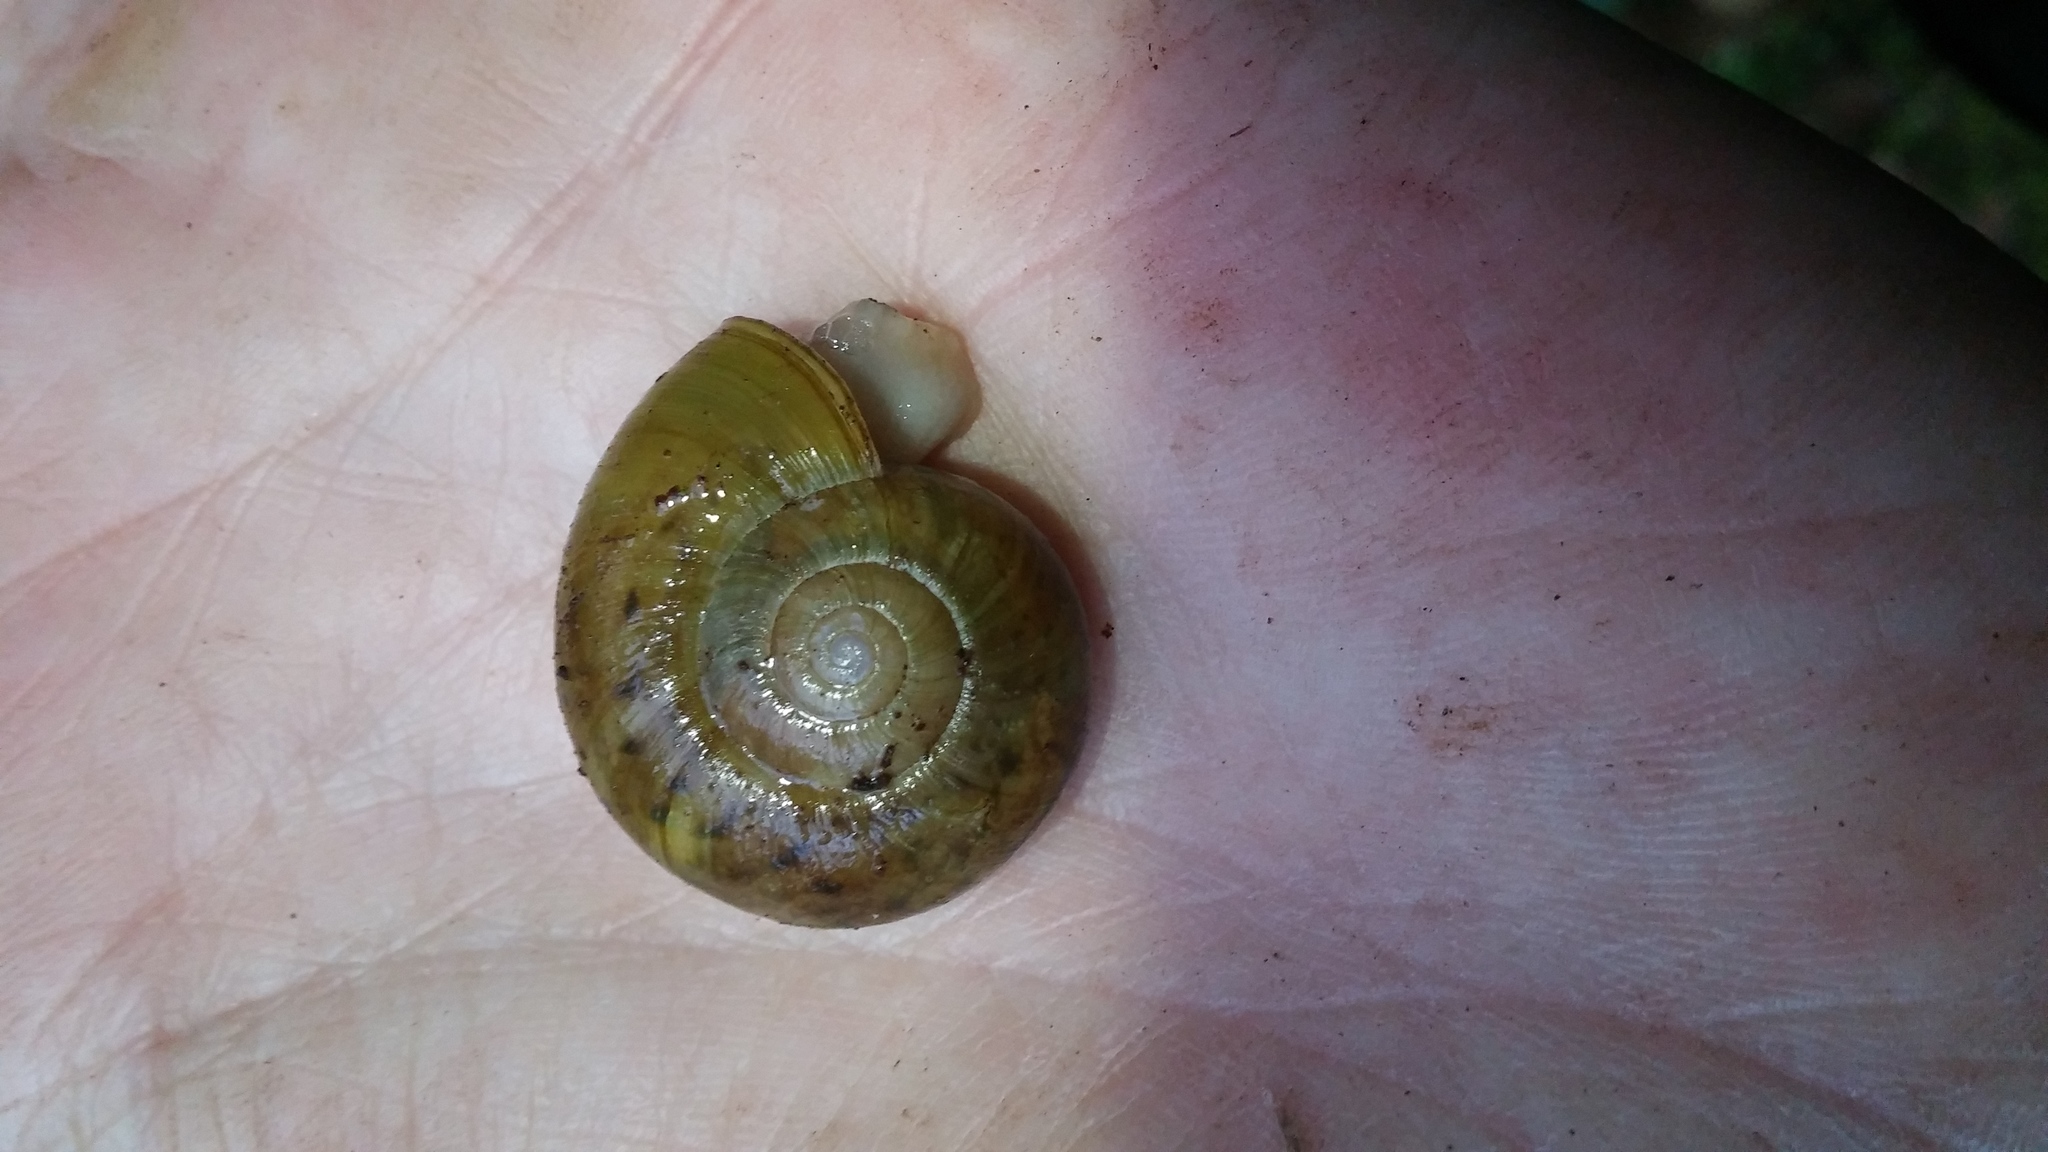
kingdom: Animalia
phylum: Mollusca
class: Gastropoda
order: Stylommatophora
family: Haplotrematidae
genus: Haplotrema
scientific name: Haplotrema vancouverense
